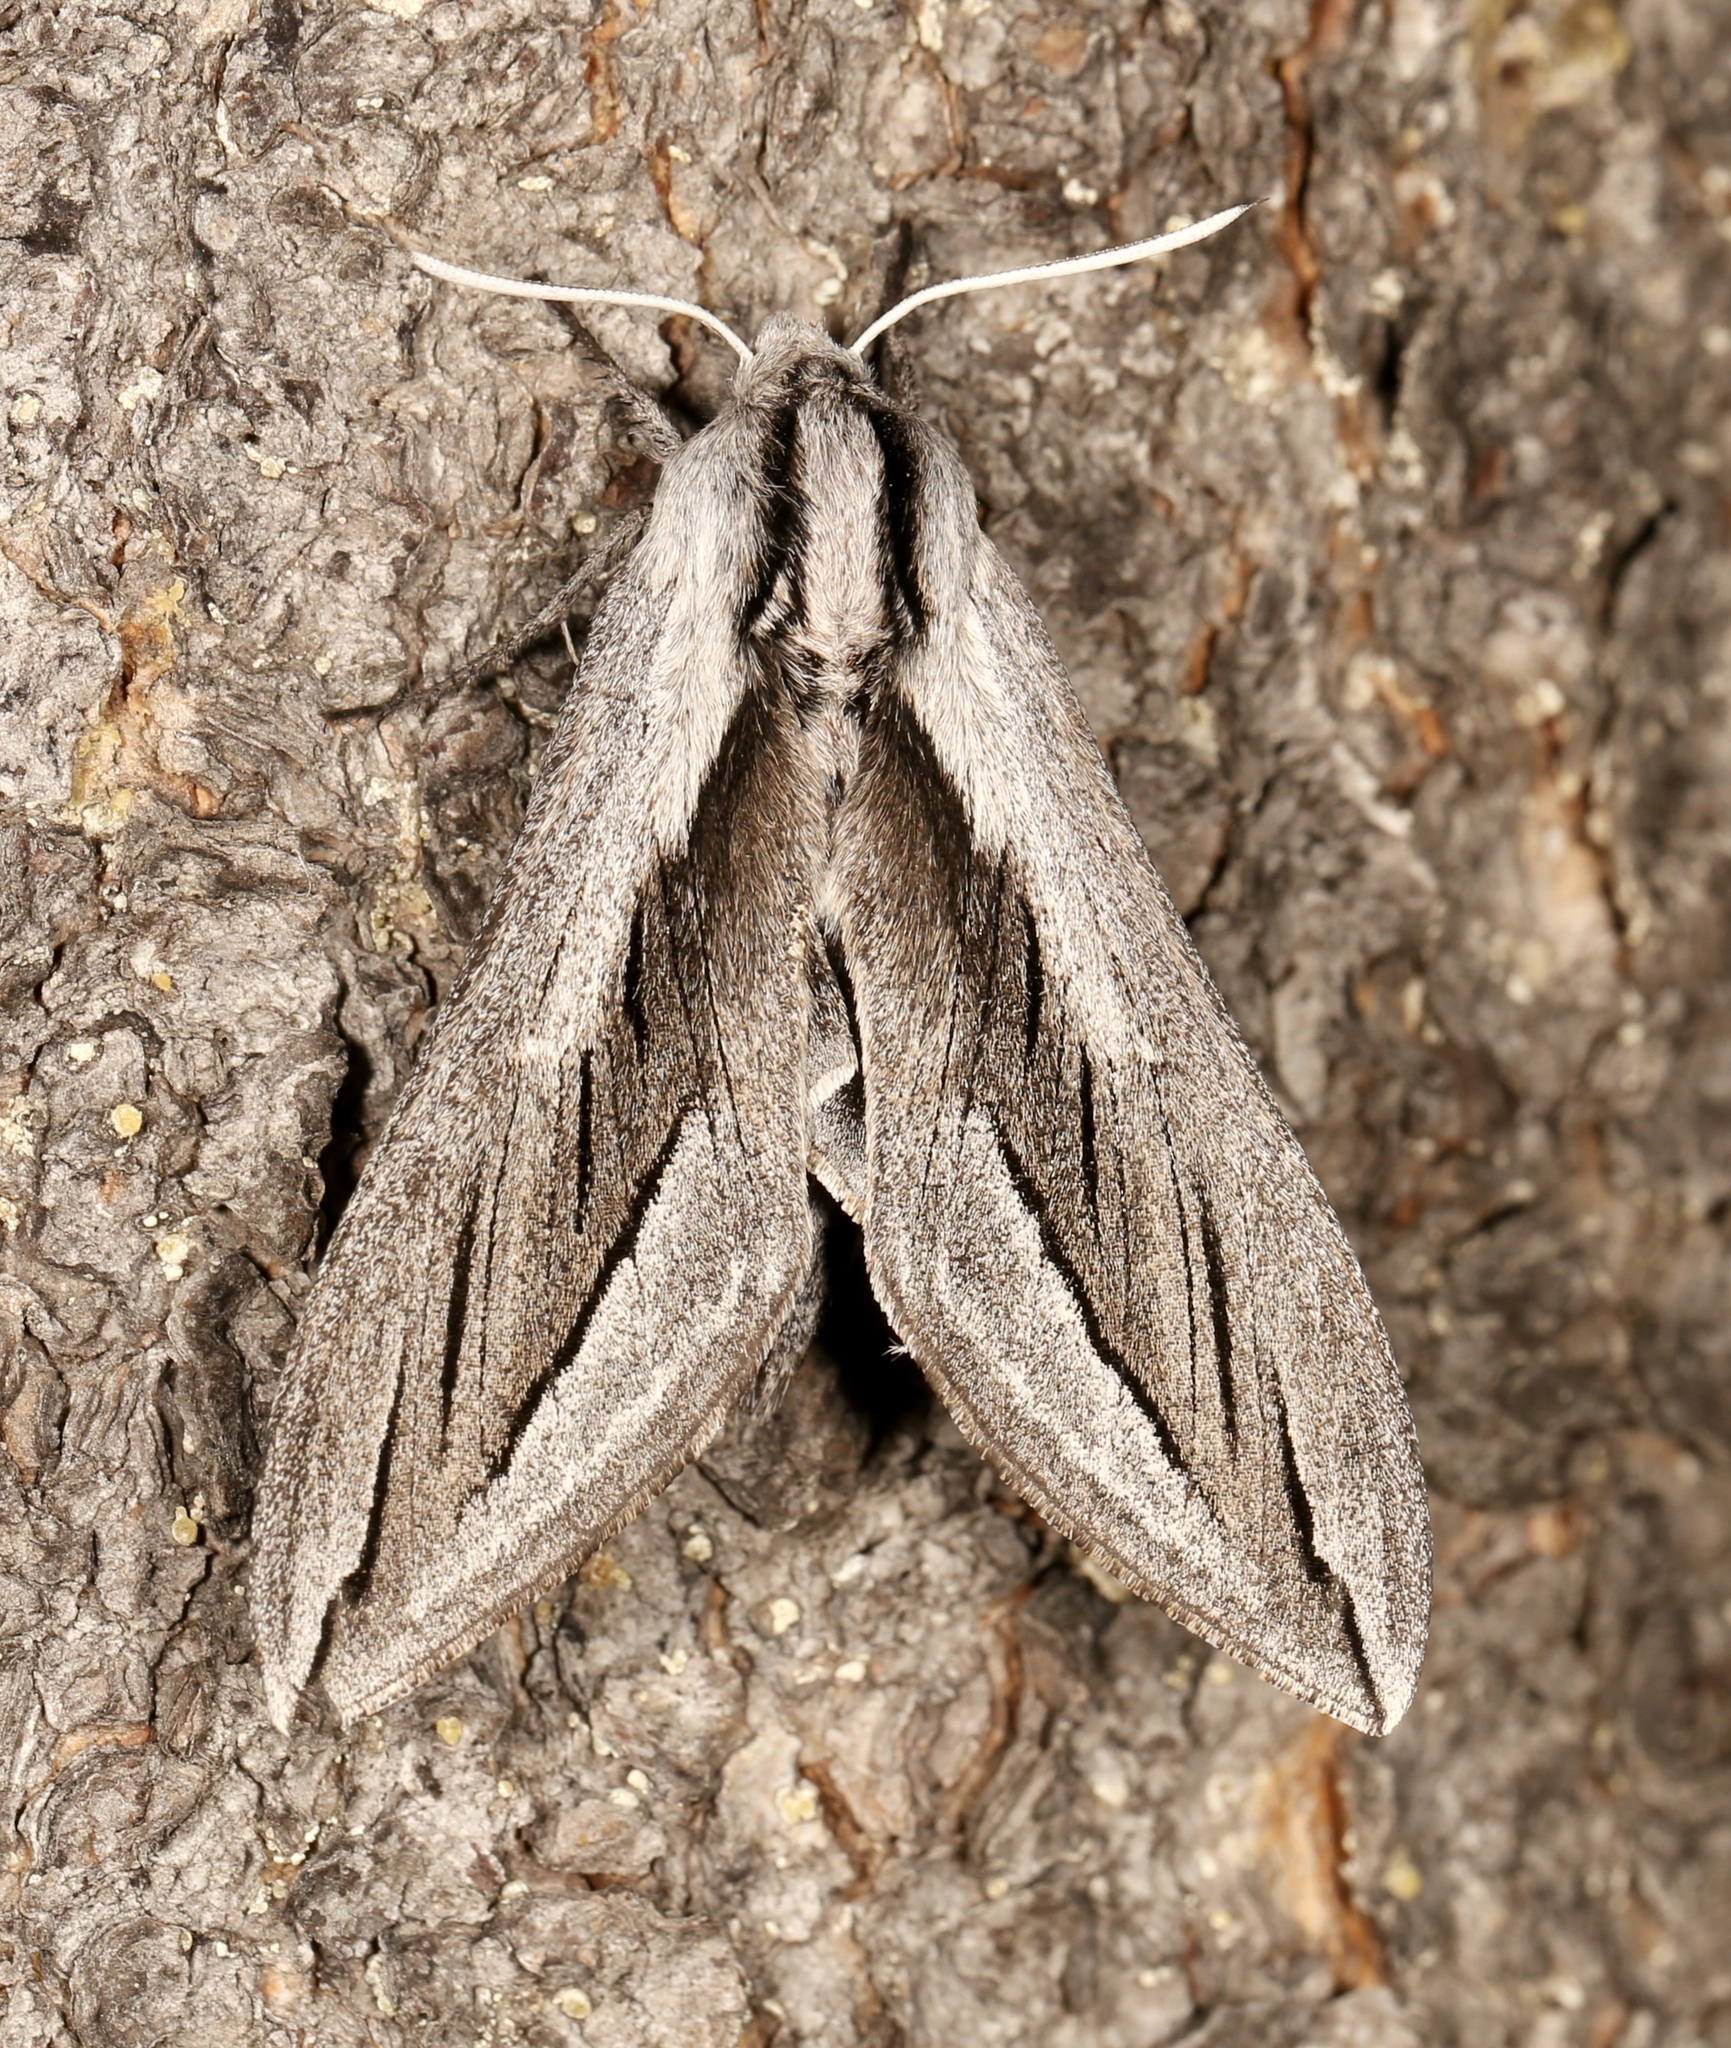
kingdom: Animalia
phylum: Arthropoda
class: Insecta
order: Lepidoptera
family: Sphingidae
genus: Sphinx
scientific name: Sphinx vashti
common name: Snowberry sphinx
